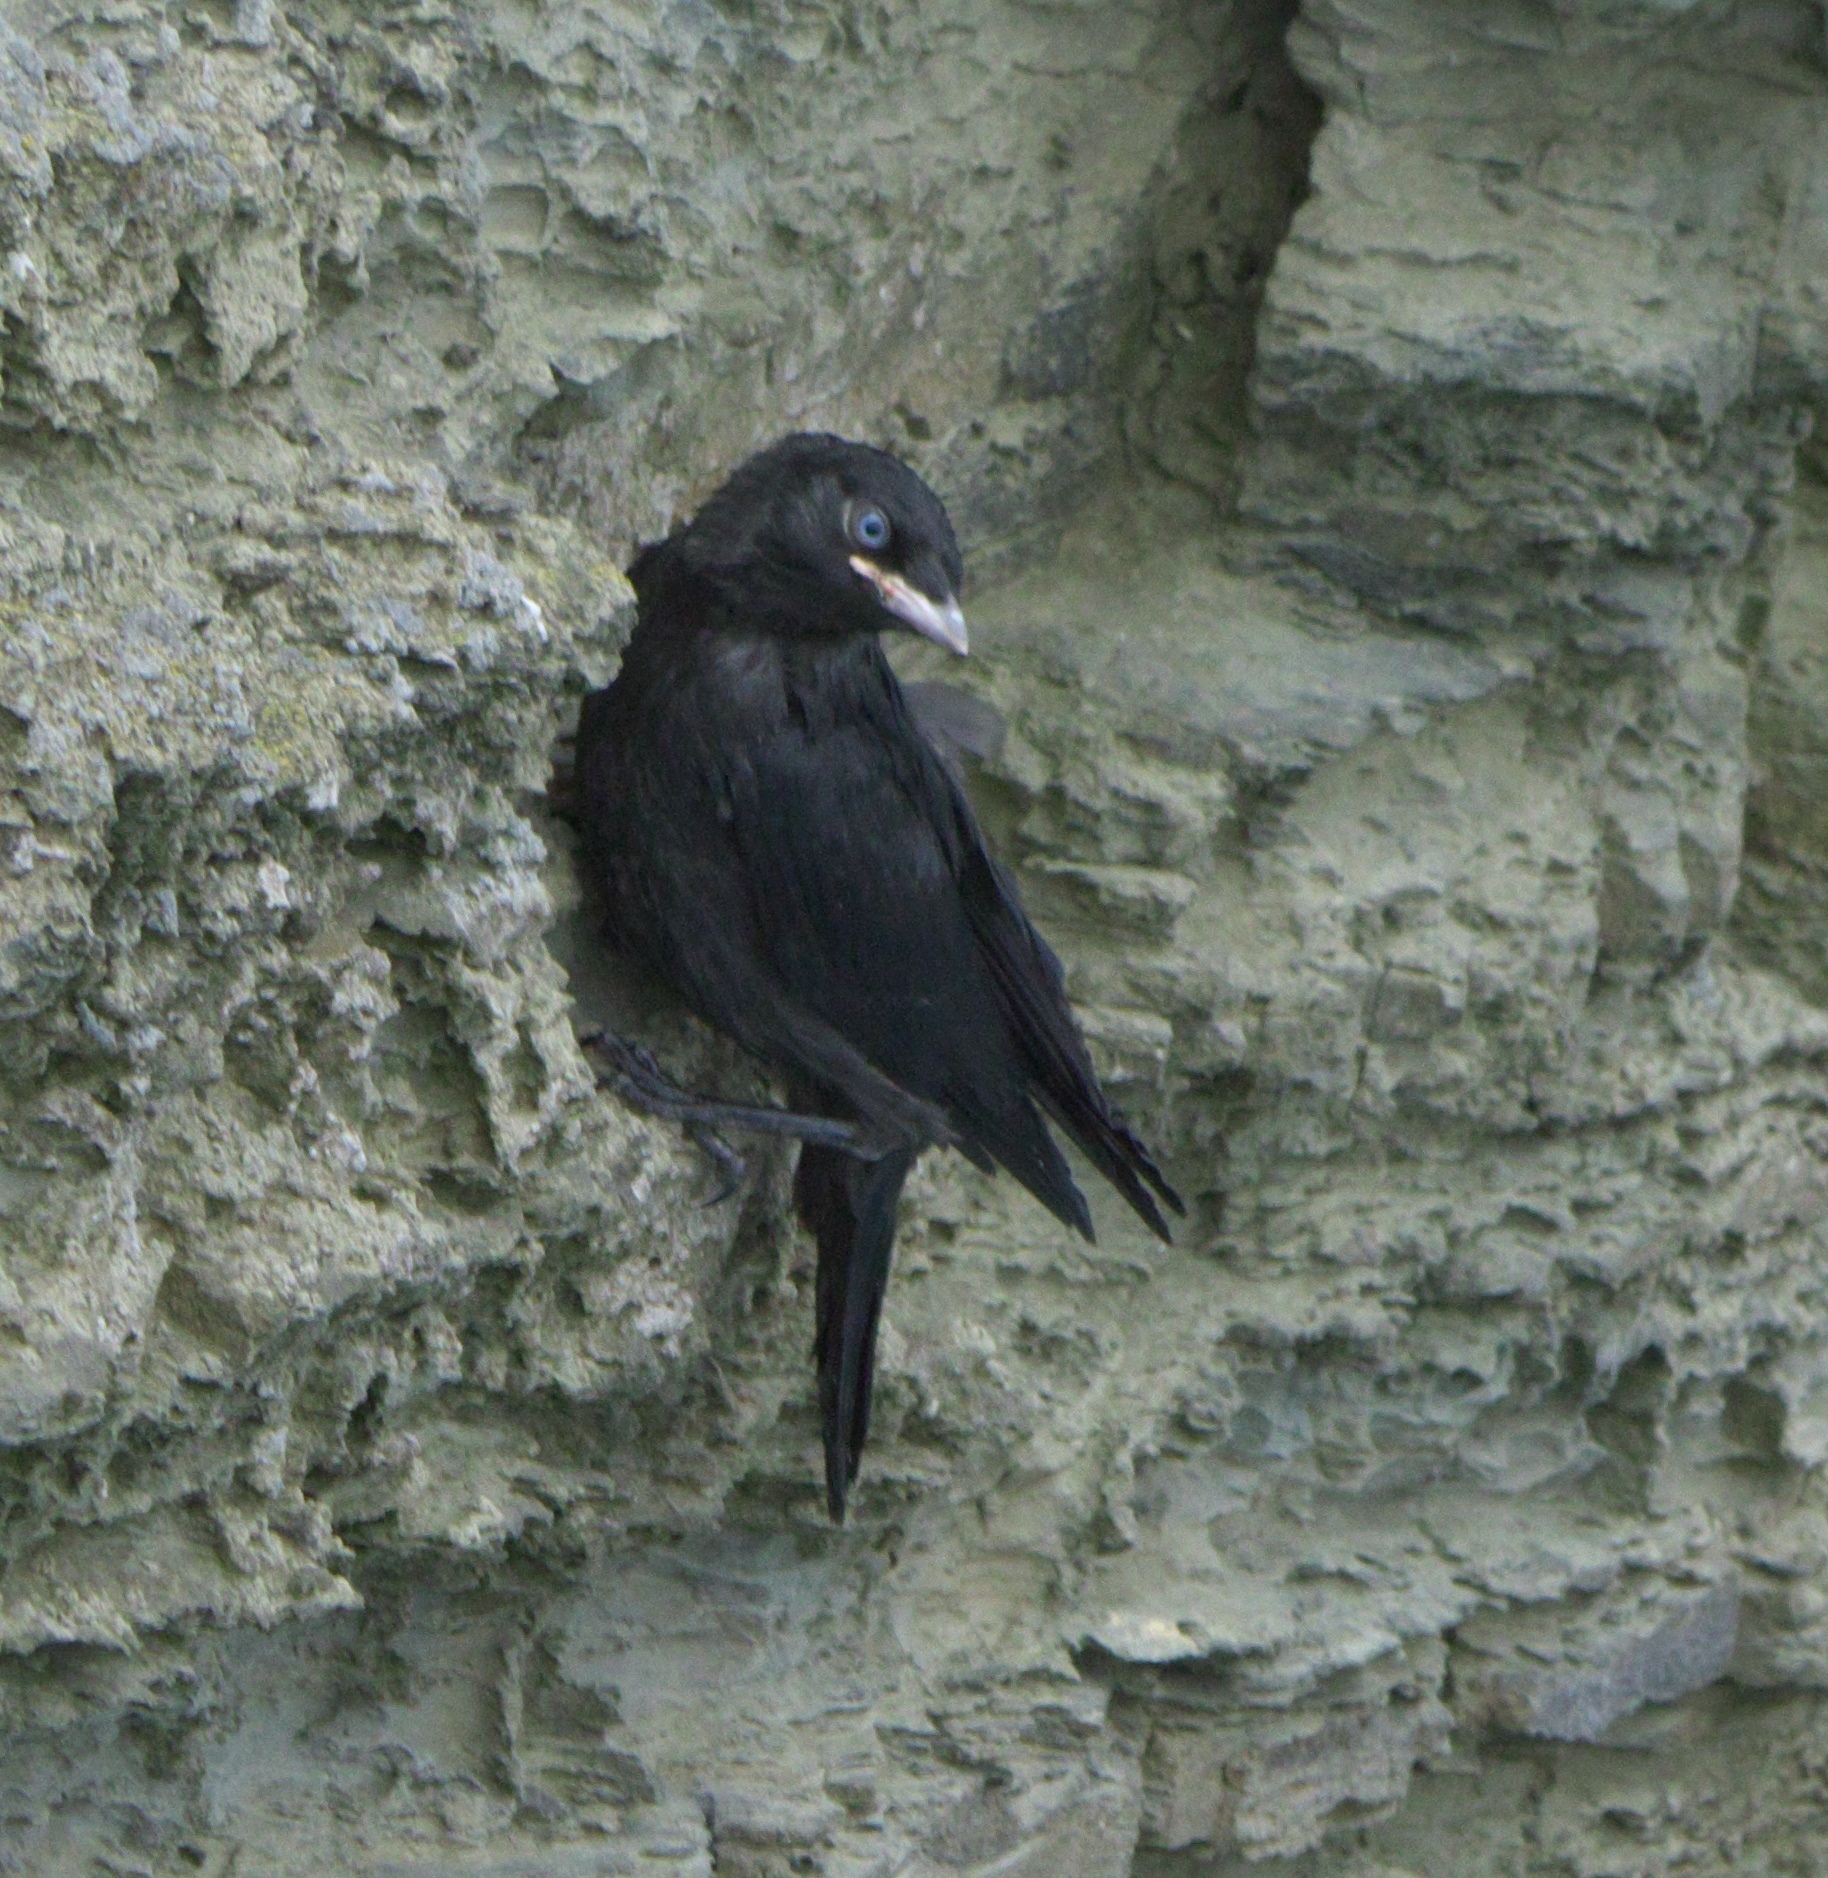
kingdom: Animalia
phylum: Chordata
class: Aves
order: Passeriformes
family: Corvidae
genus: Coloeus
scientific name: Coloeus monedula
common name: Western jackdaw
